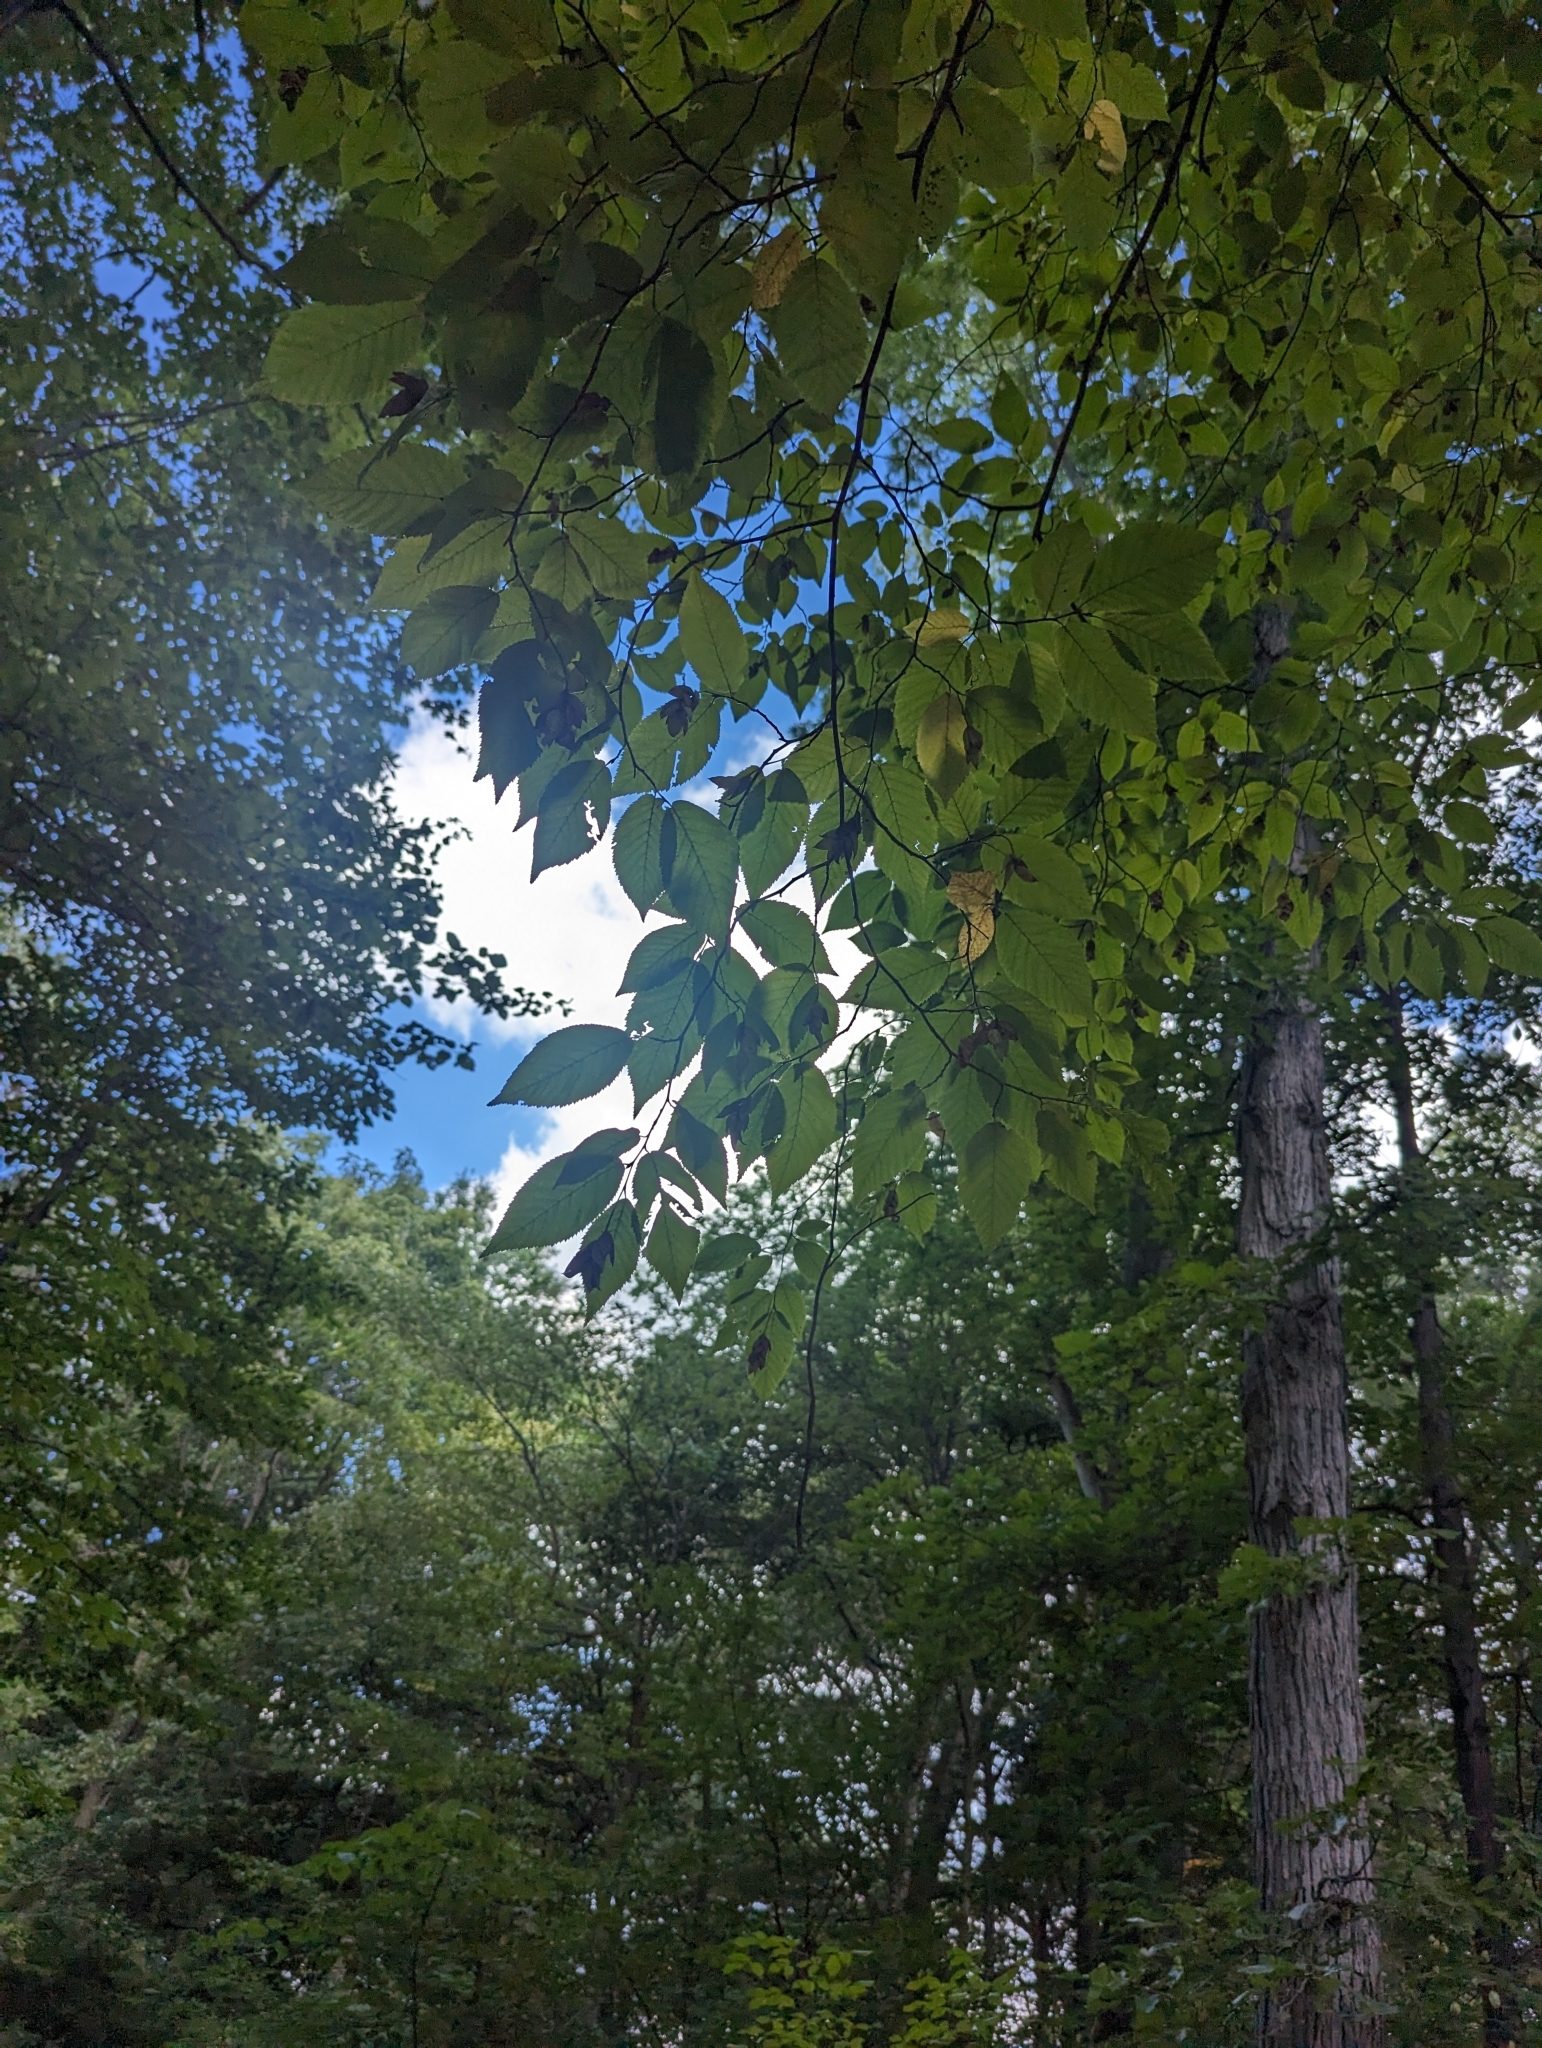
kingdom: Plantae
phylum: Tracheophyta
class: Magnoliopsida
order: Fagales
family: Betulaceae
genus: Ostrya
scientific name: Ostrya virginiana
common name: Ironwood
